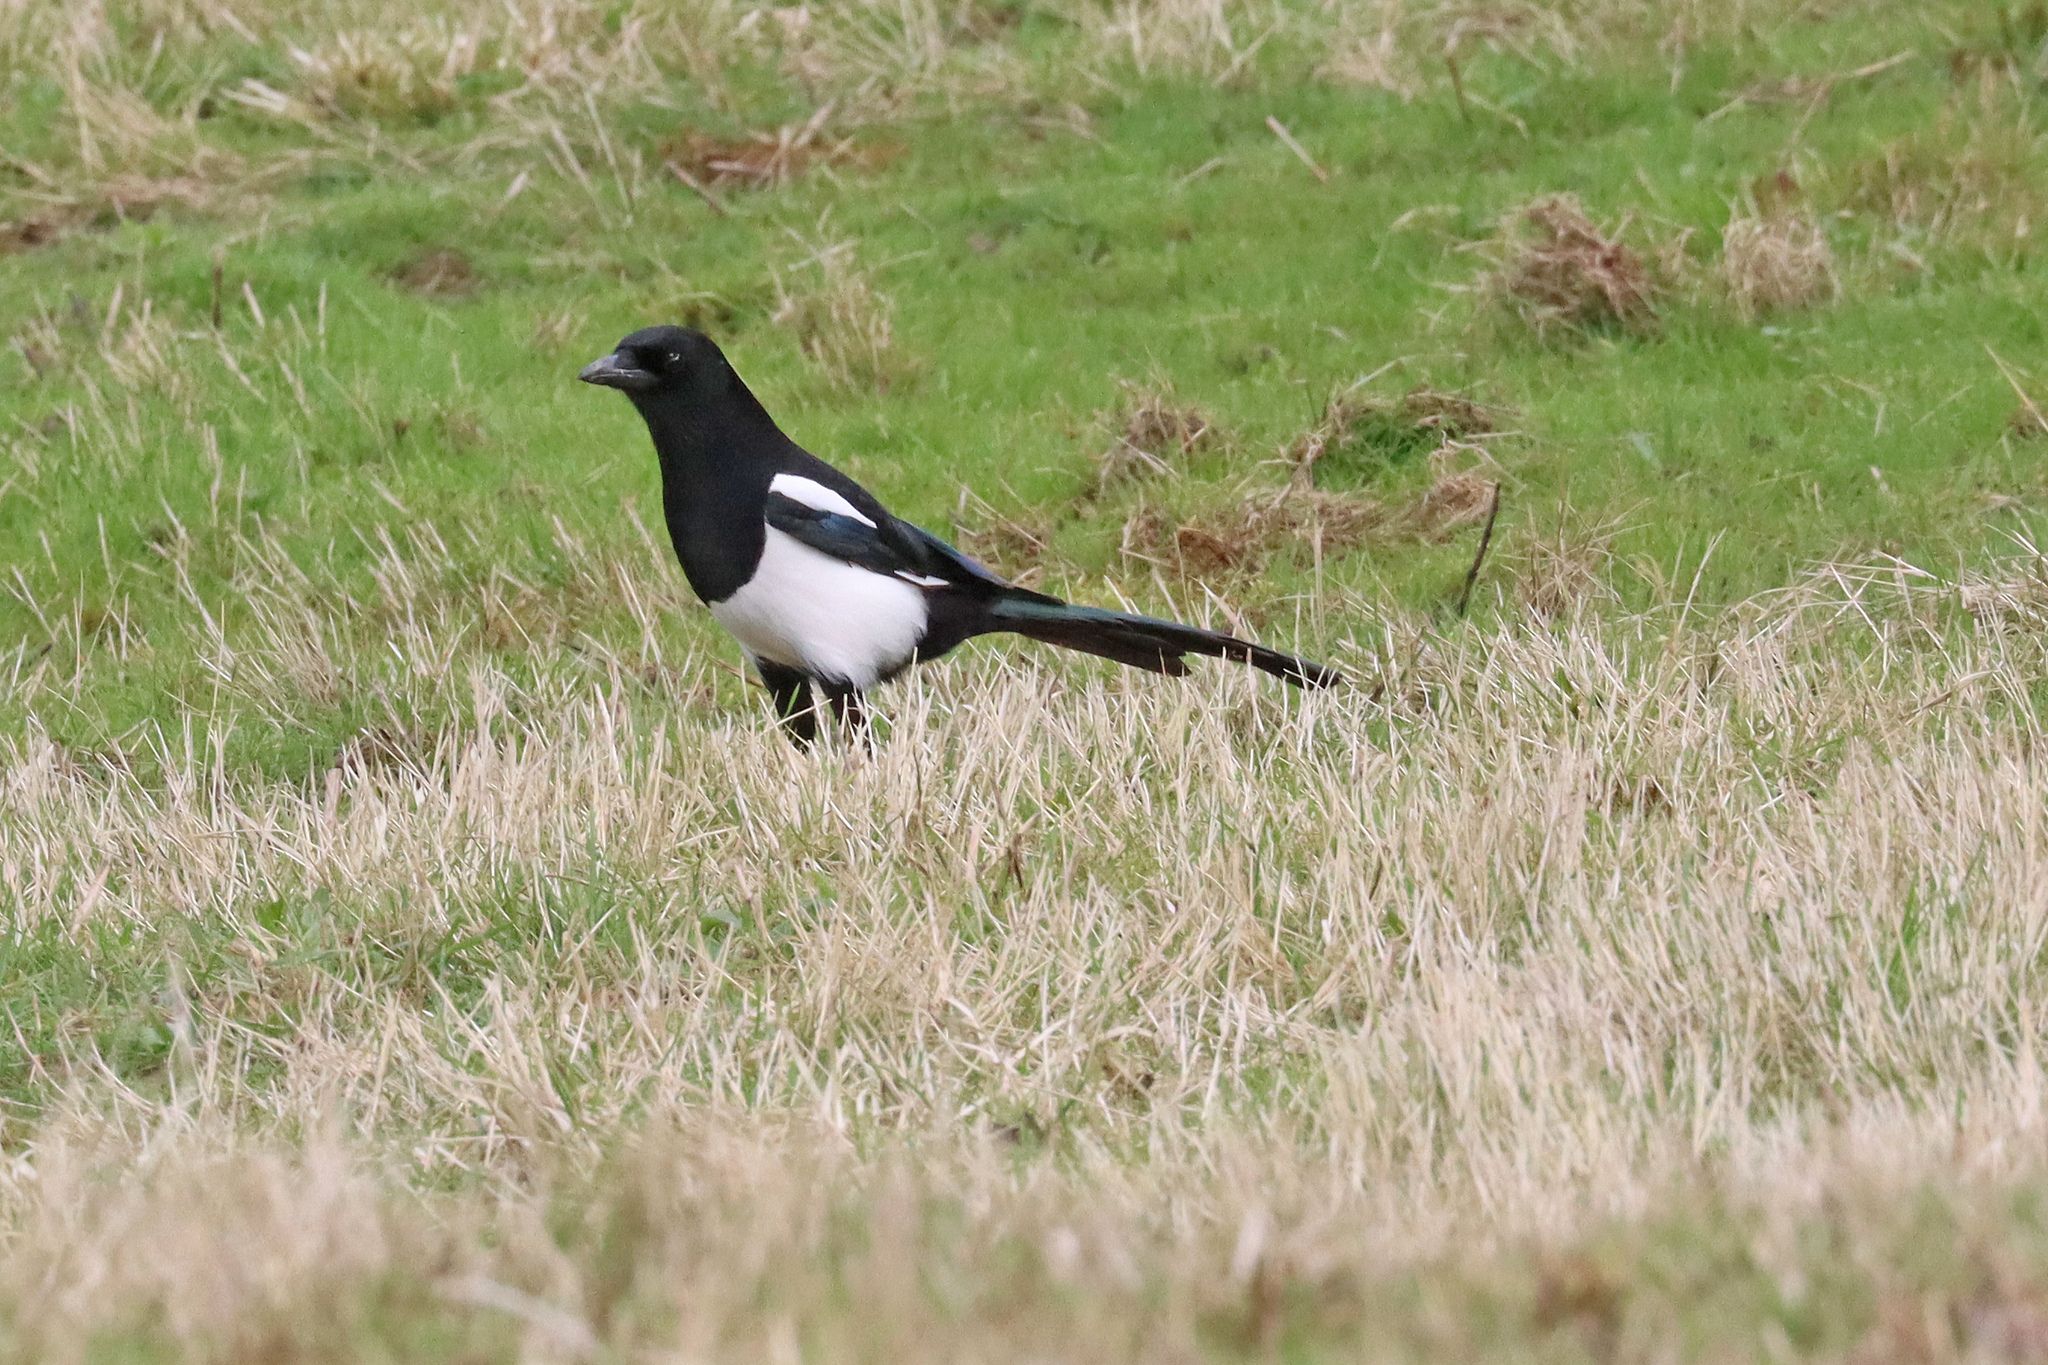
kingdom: Animalia
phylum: Chordata
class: Aves
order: Passeriformes
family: Corvidae
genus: Pica
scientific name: Pica pica
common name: Eurasian magpie
